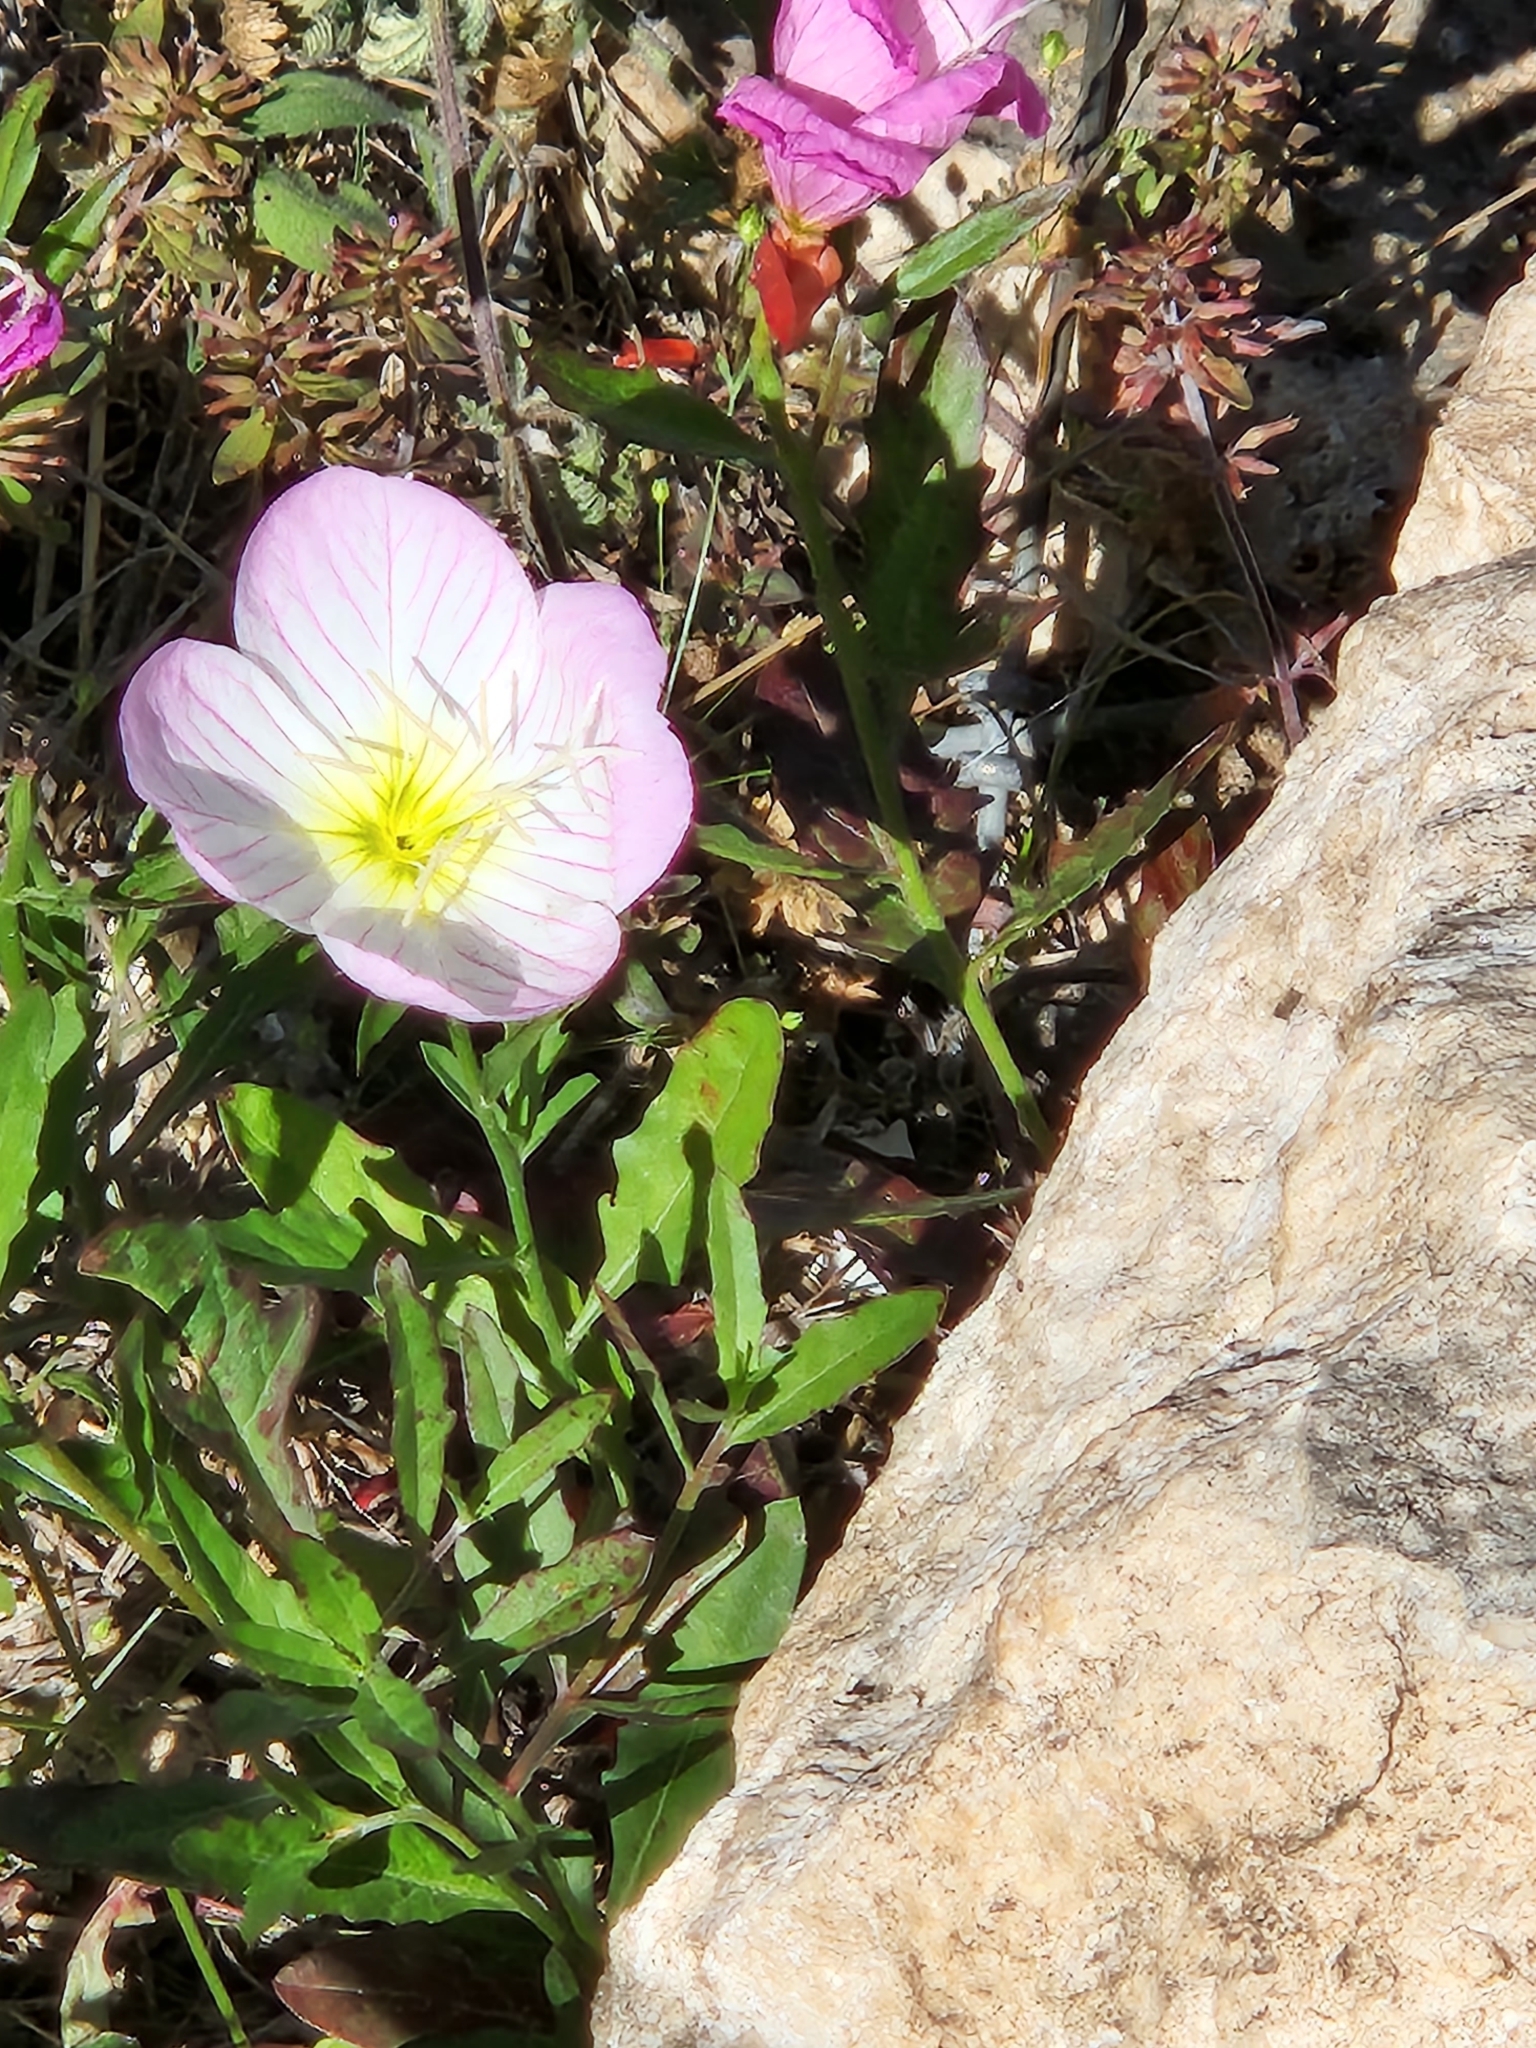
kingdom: Plantae
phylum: Tracheophyta
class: Magnoliopsida
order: Myrtales
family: Onagraceae
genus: Oenothera
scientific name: Oenothera speciosa
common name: White evening-primrose
